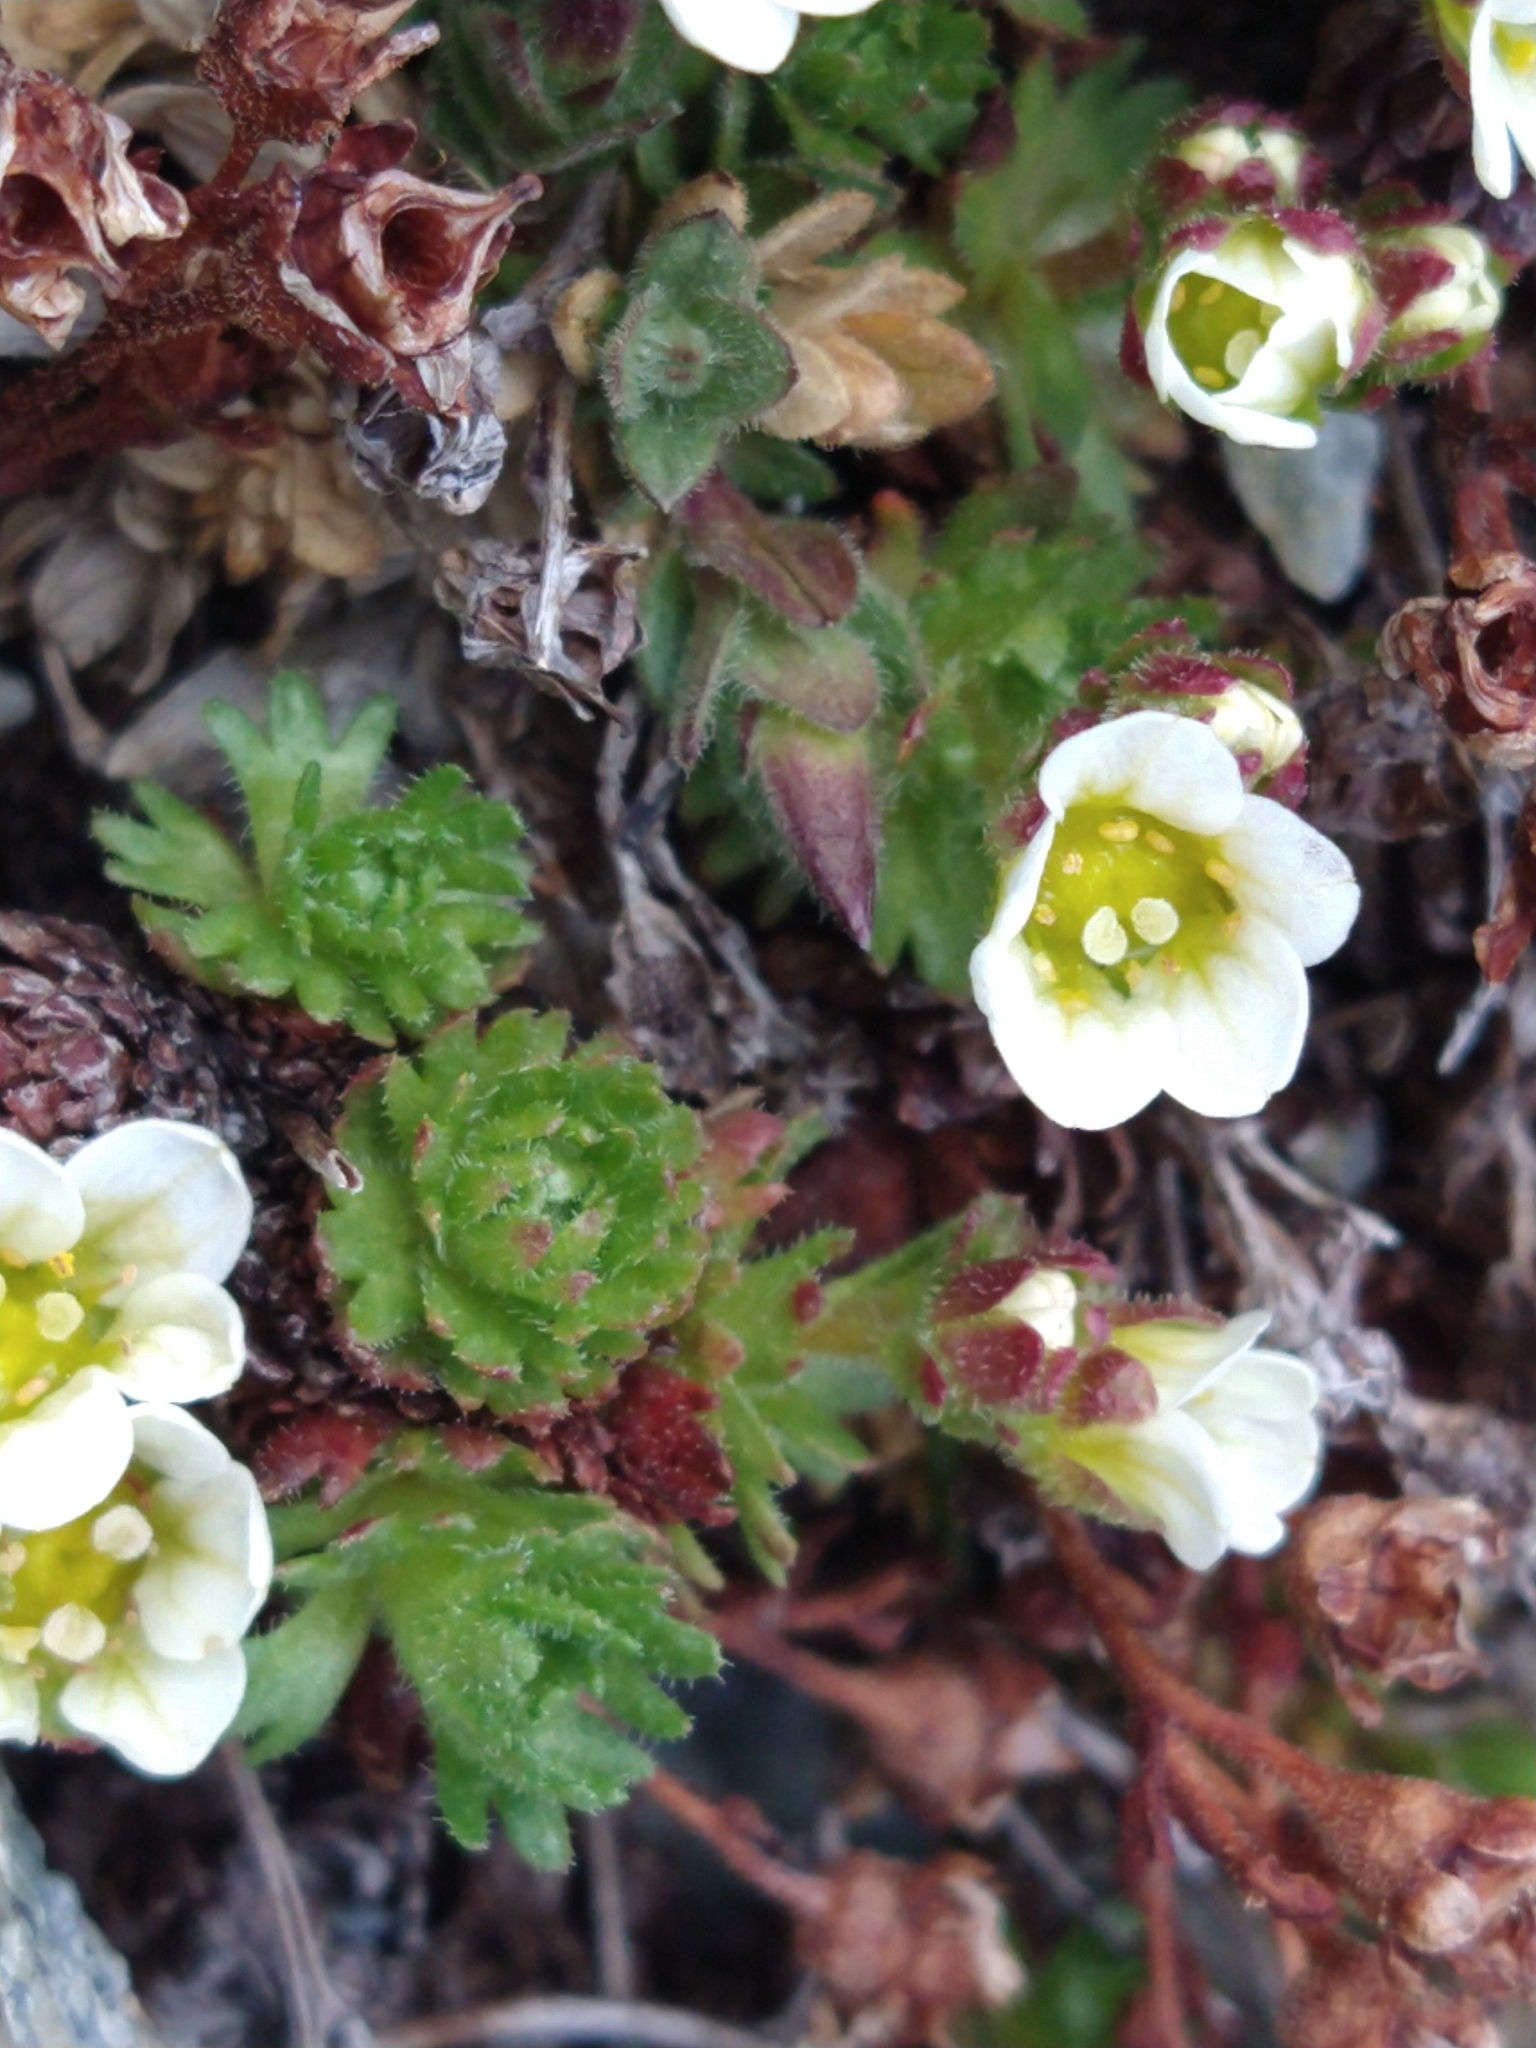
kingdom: Plantae
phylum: Tracheophyta
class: Magnoliopsida
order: Saxifragales
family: Saxifragaceae
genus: Saxifraga
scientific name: Saxifraga magellanica
